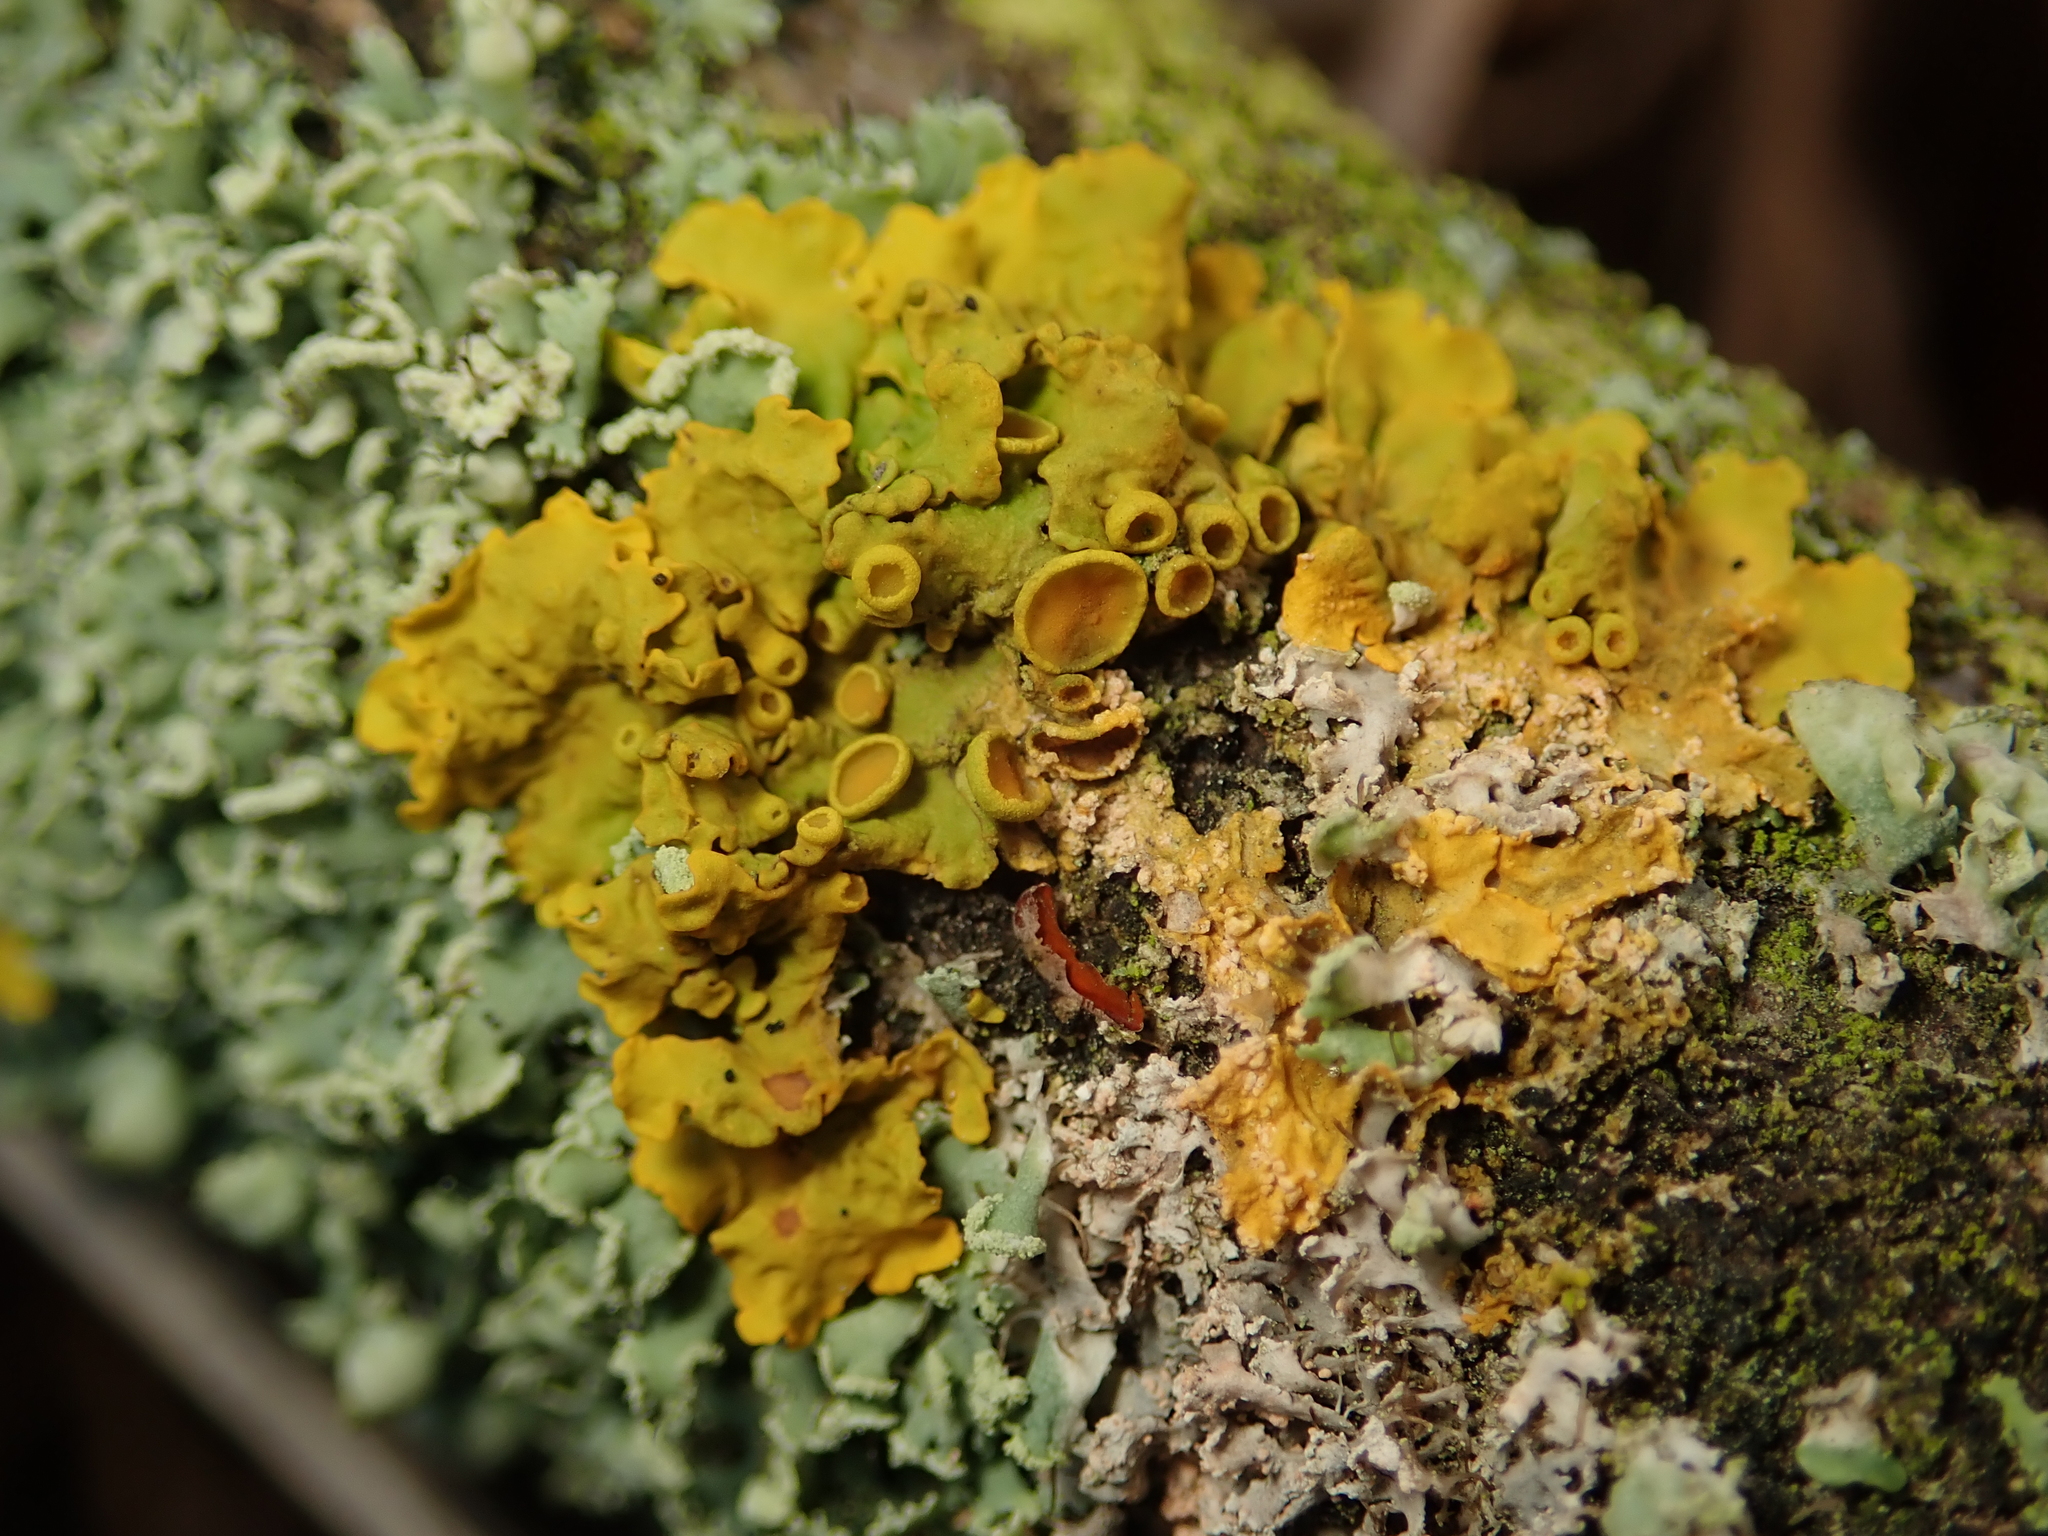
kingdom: Fungi
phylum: Ascomycota
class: Lecanoromycetes
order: Teloschistales
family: Teloschistaceae
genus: Xanthoria
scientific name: Xanthoria parietina
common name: Common orange lichen
